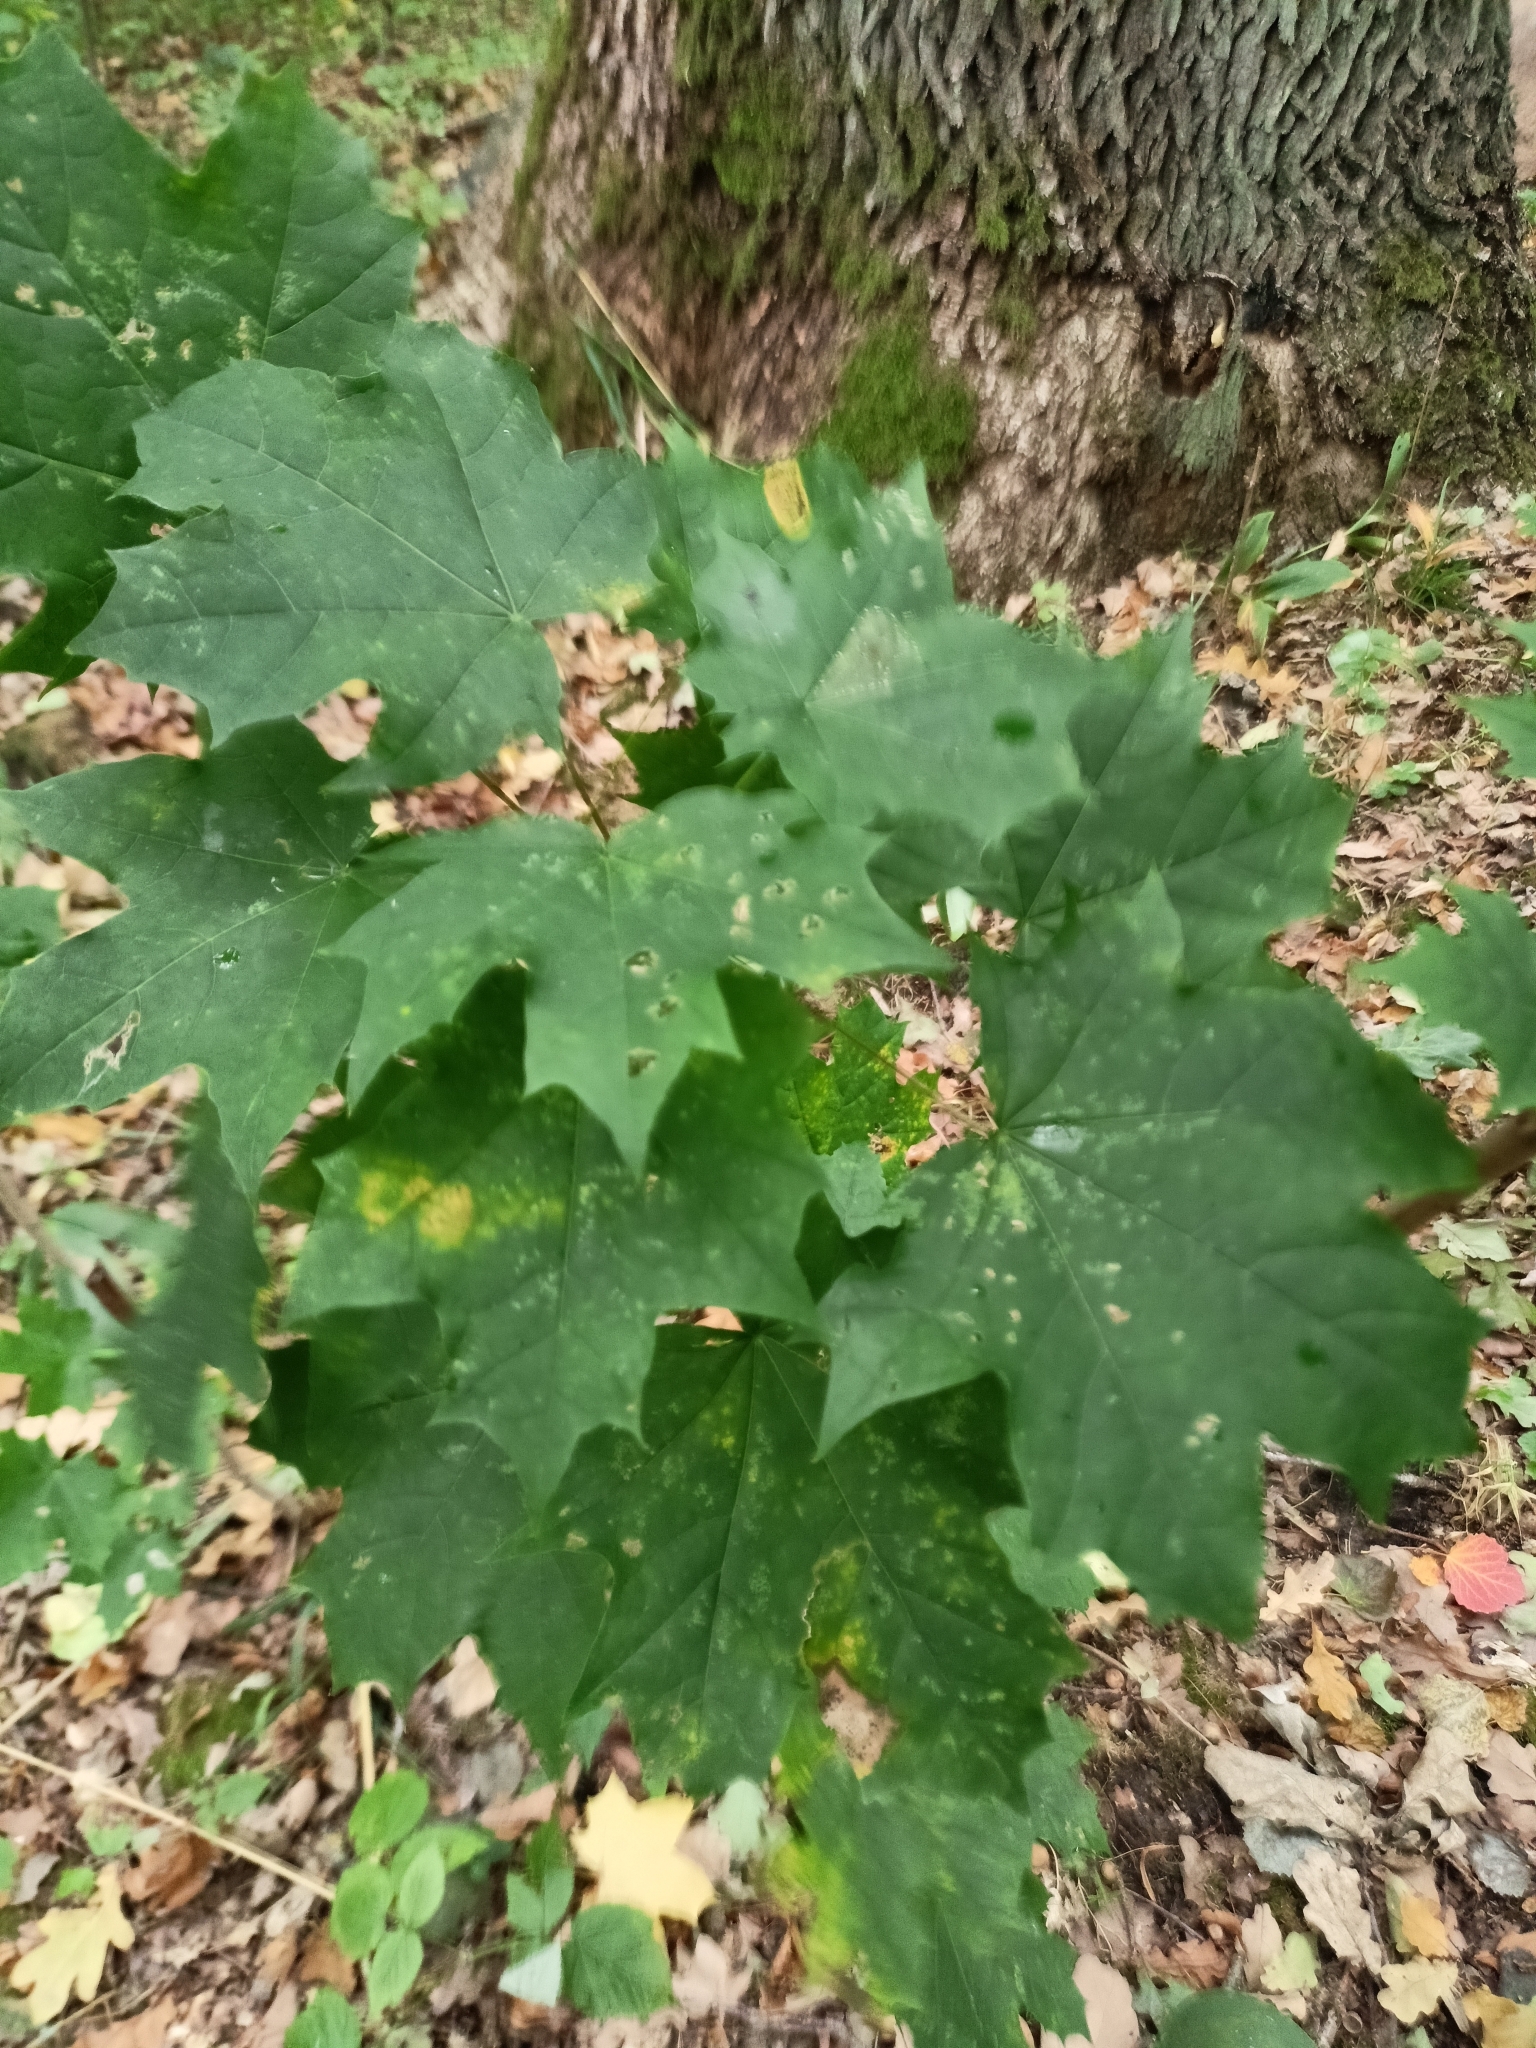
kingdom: Plantae
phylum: Tracheophyta
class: Magnoliopsida
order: Sapindales
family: Sapindaceae
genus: Acer
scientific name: Acer platanoides
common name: Norway maple
